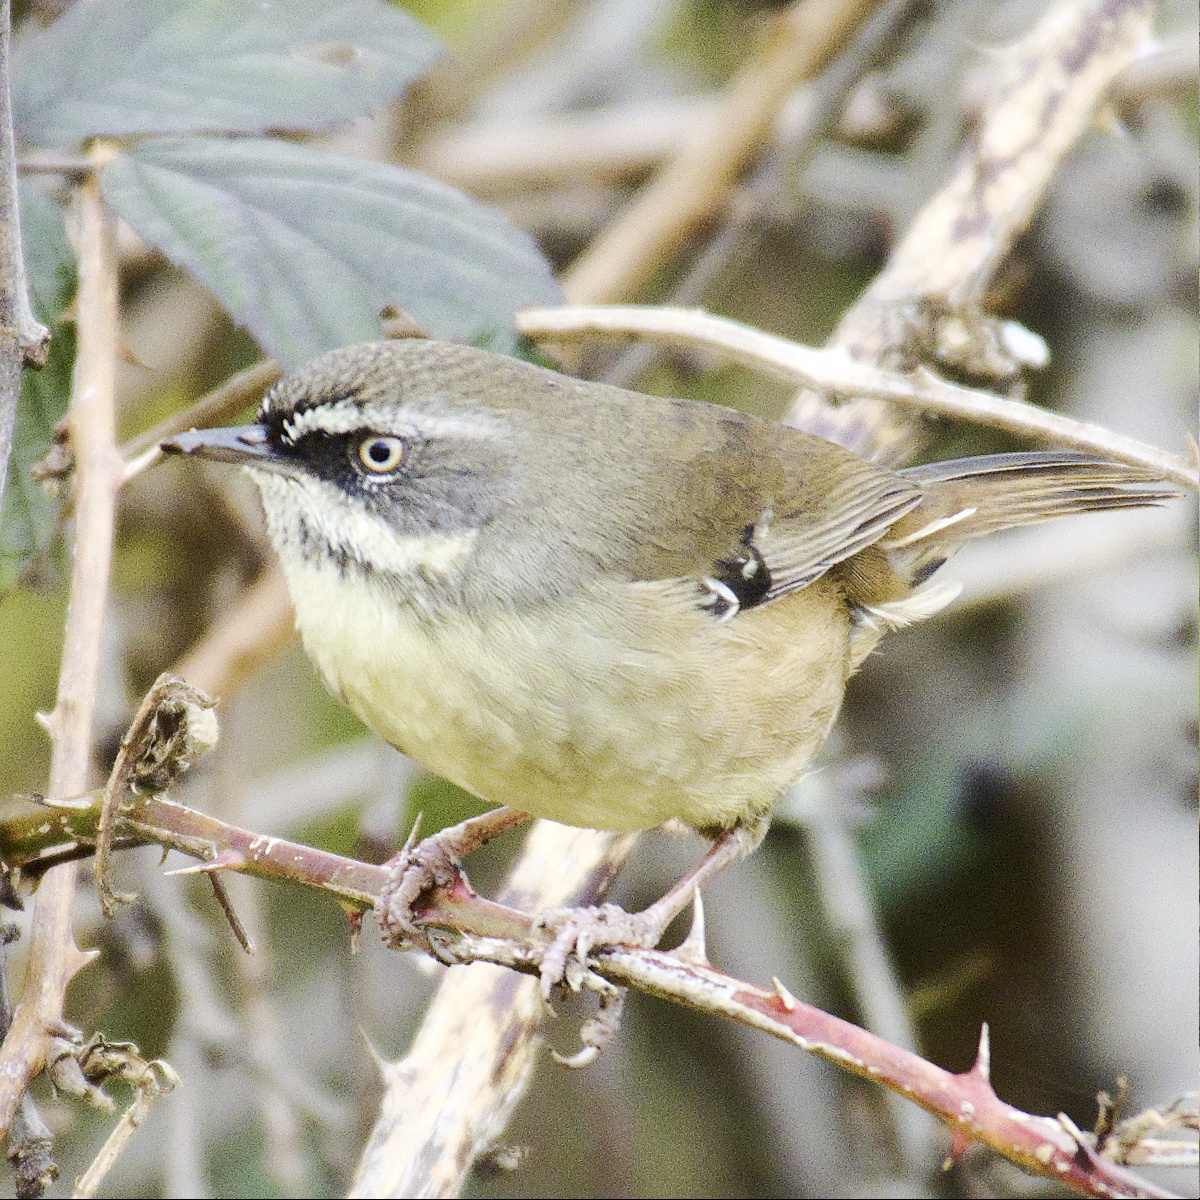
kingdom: Animalia
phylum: Chordata
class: Aves
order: Passeriformes
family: Acanthizidae
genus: Sericornis
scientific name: Sericornis frontalis
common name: White-browed scrubwren
